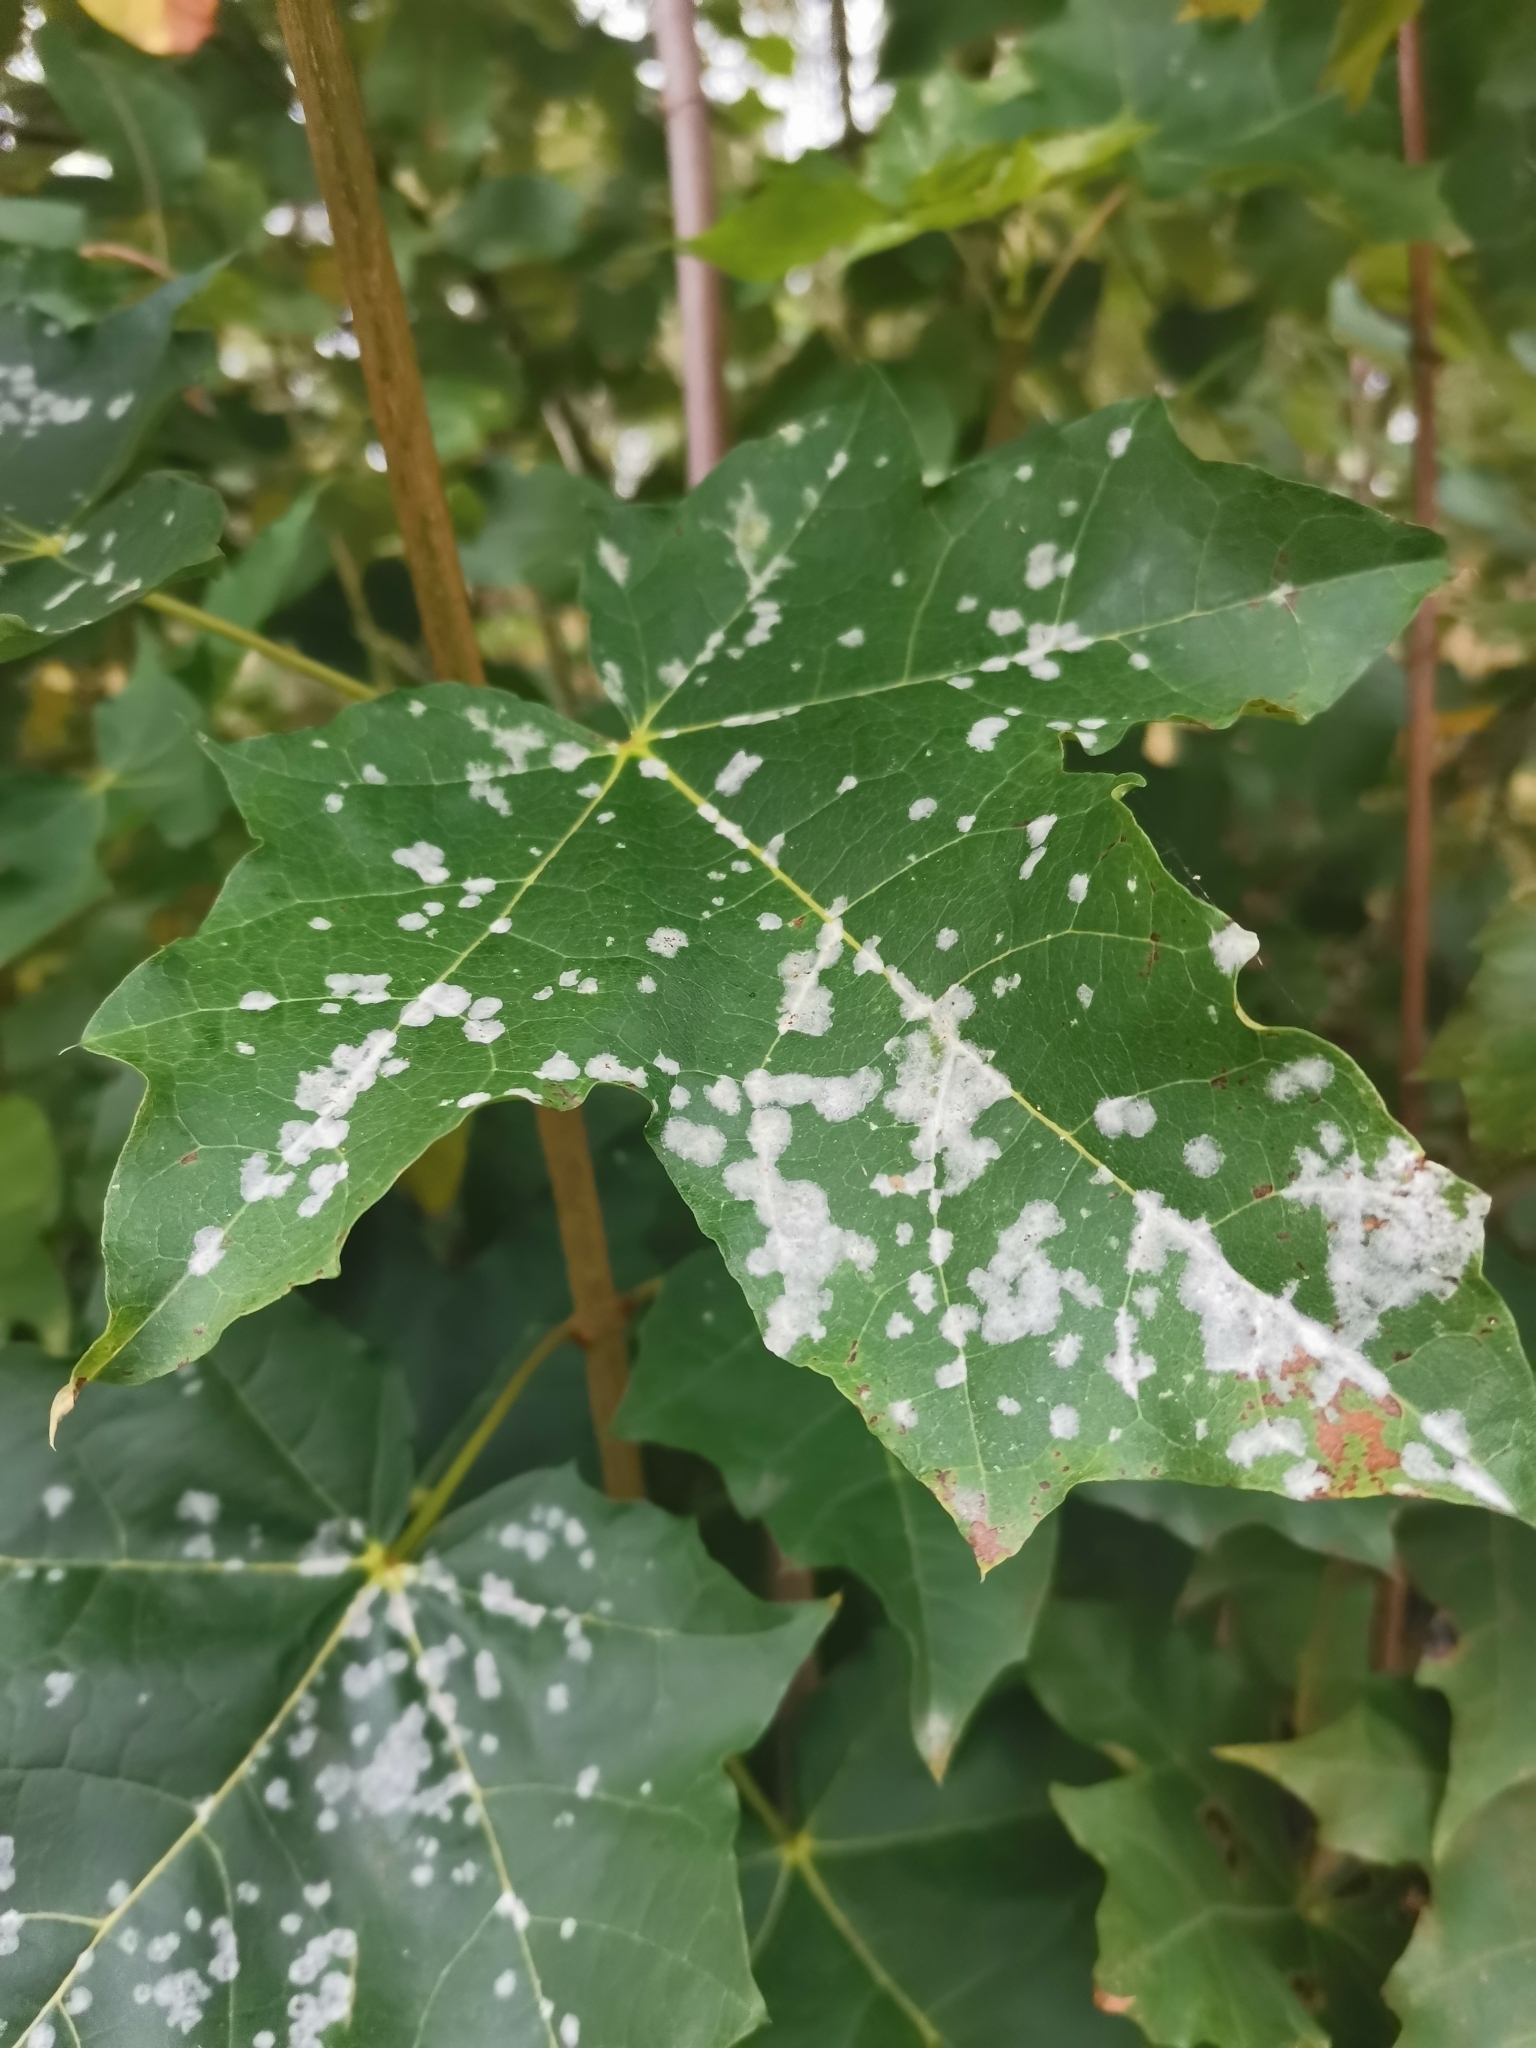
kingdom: Fungi
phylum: Ascomycota
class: Leotiomycetes
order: Helotiales
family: Erysiphaceae
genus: Sawadaea
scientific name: Sawadaea tulasnei
